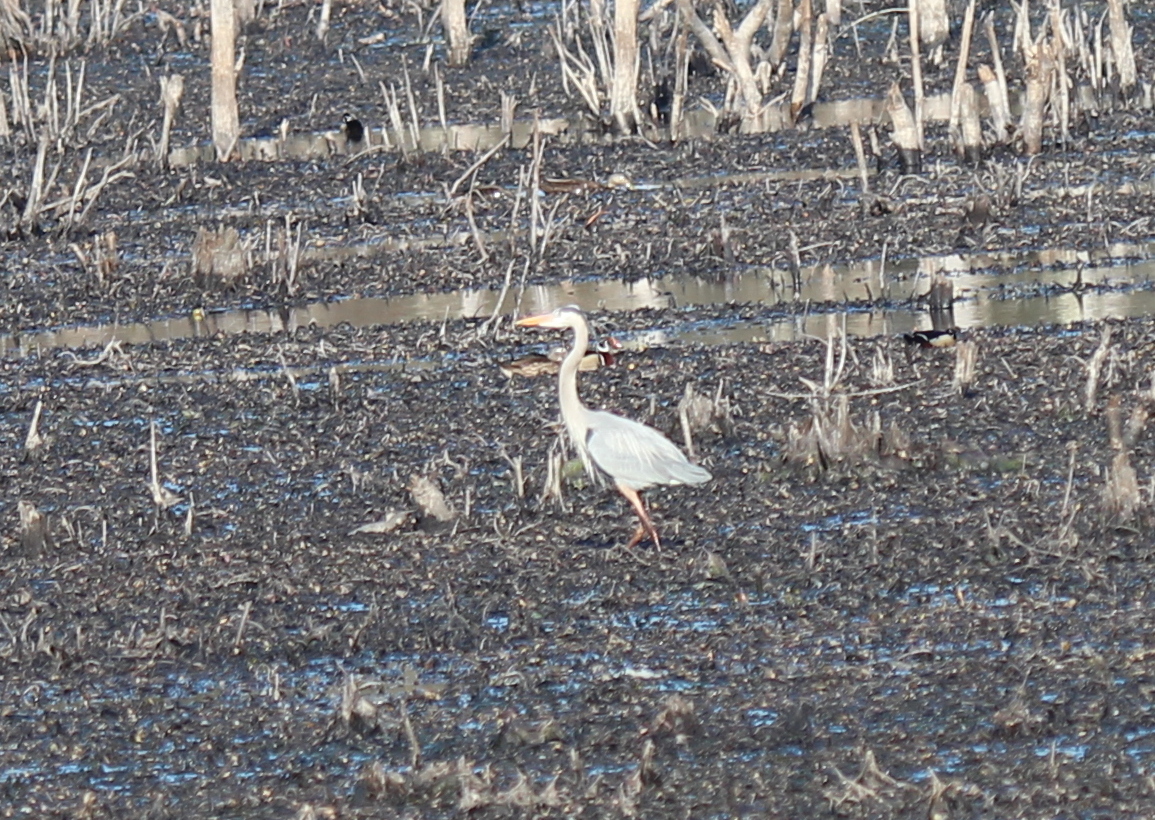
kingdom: Animalia
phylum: Chordata
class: Aves
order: Pelecaniformes
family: Ardeidae
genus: Ardea
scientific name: Ardea herodias
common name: Great blue heron
